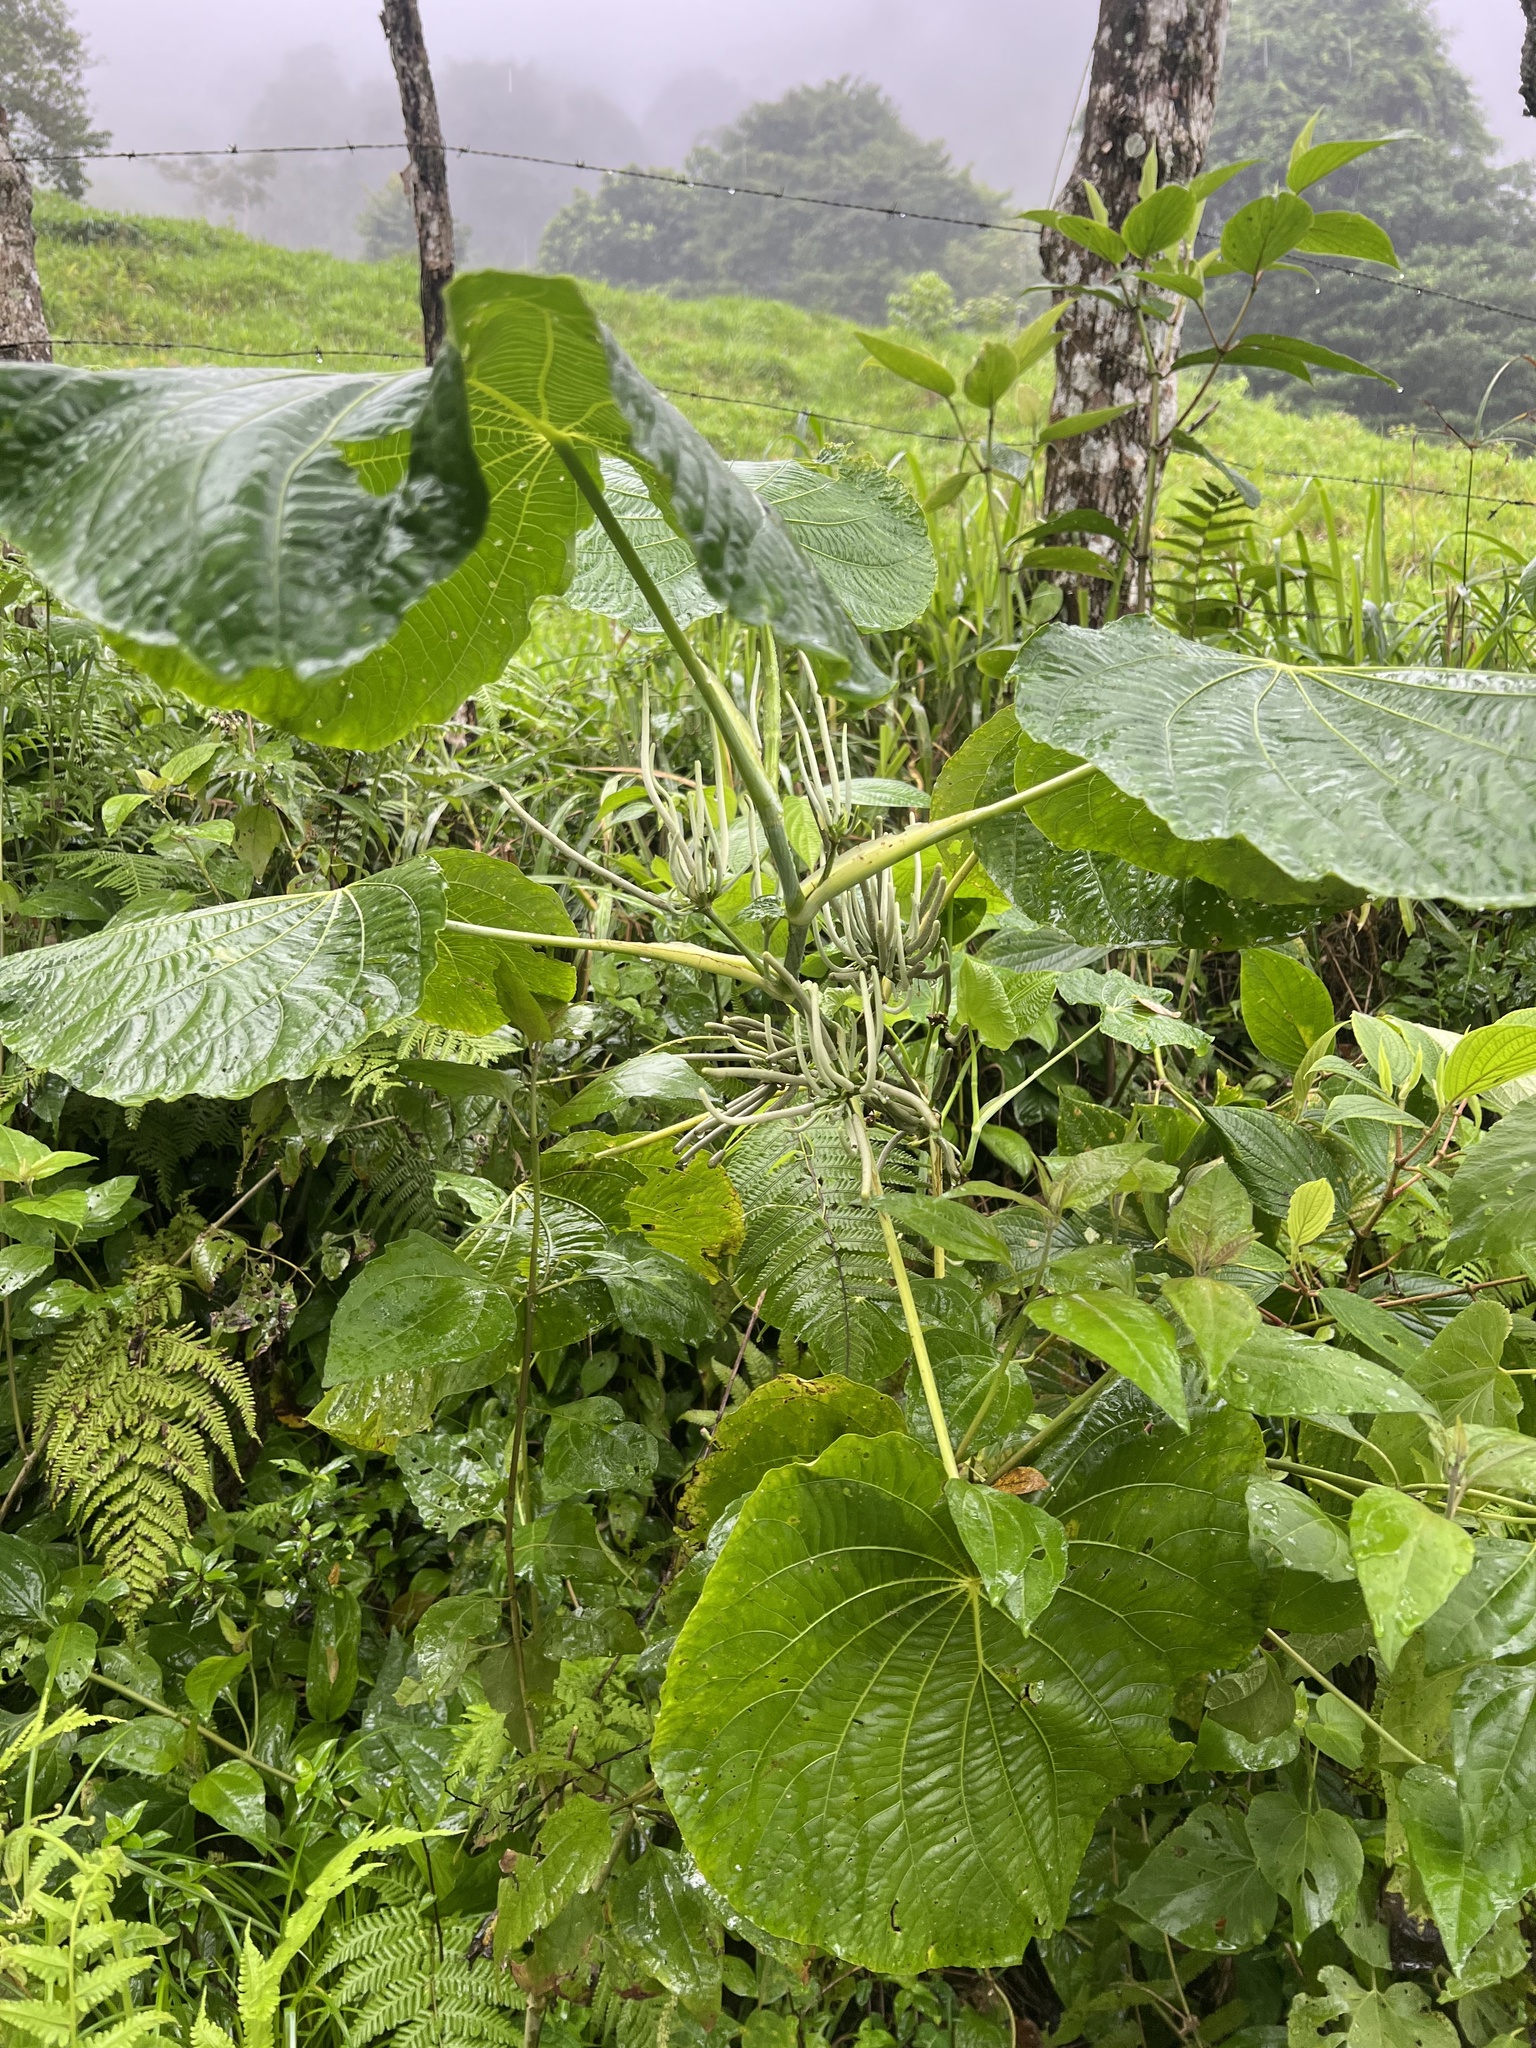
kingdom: Plantae
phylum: Tracheophyta
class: Magnoliopsida
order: Piperales
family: Piperaceae
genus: Piper
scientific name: Piper peltatum
